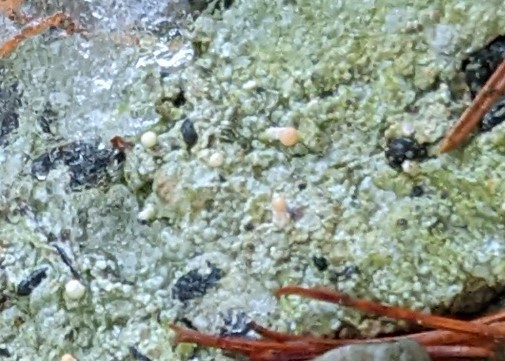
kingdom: Fungi
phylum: Ascomycota
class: Lecanoromycetes
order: Pertusariales
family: Icmadophilaceae
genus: Dibaeis
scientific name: Dibaeis baeomyces
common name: Pink earth lichen
